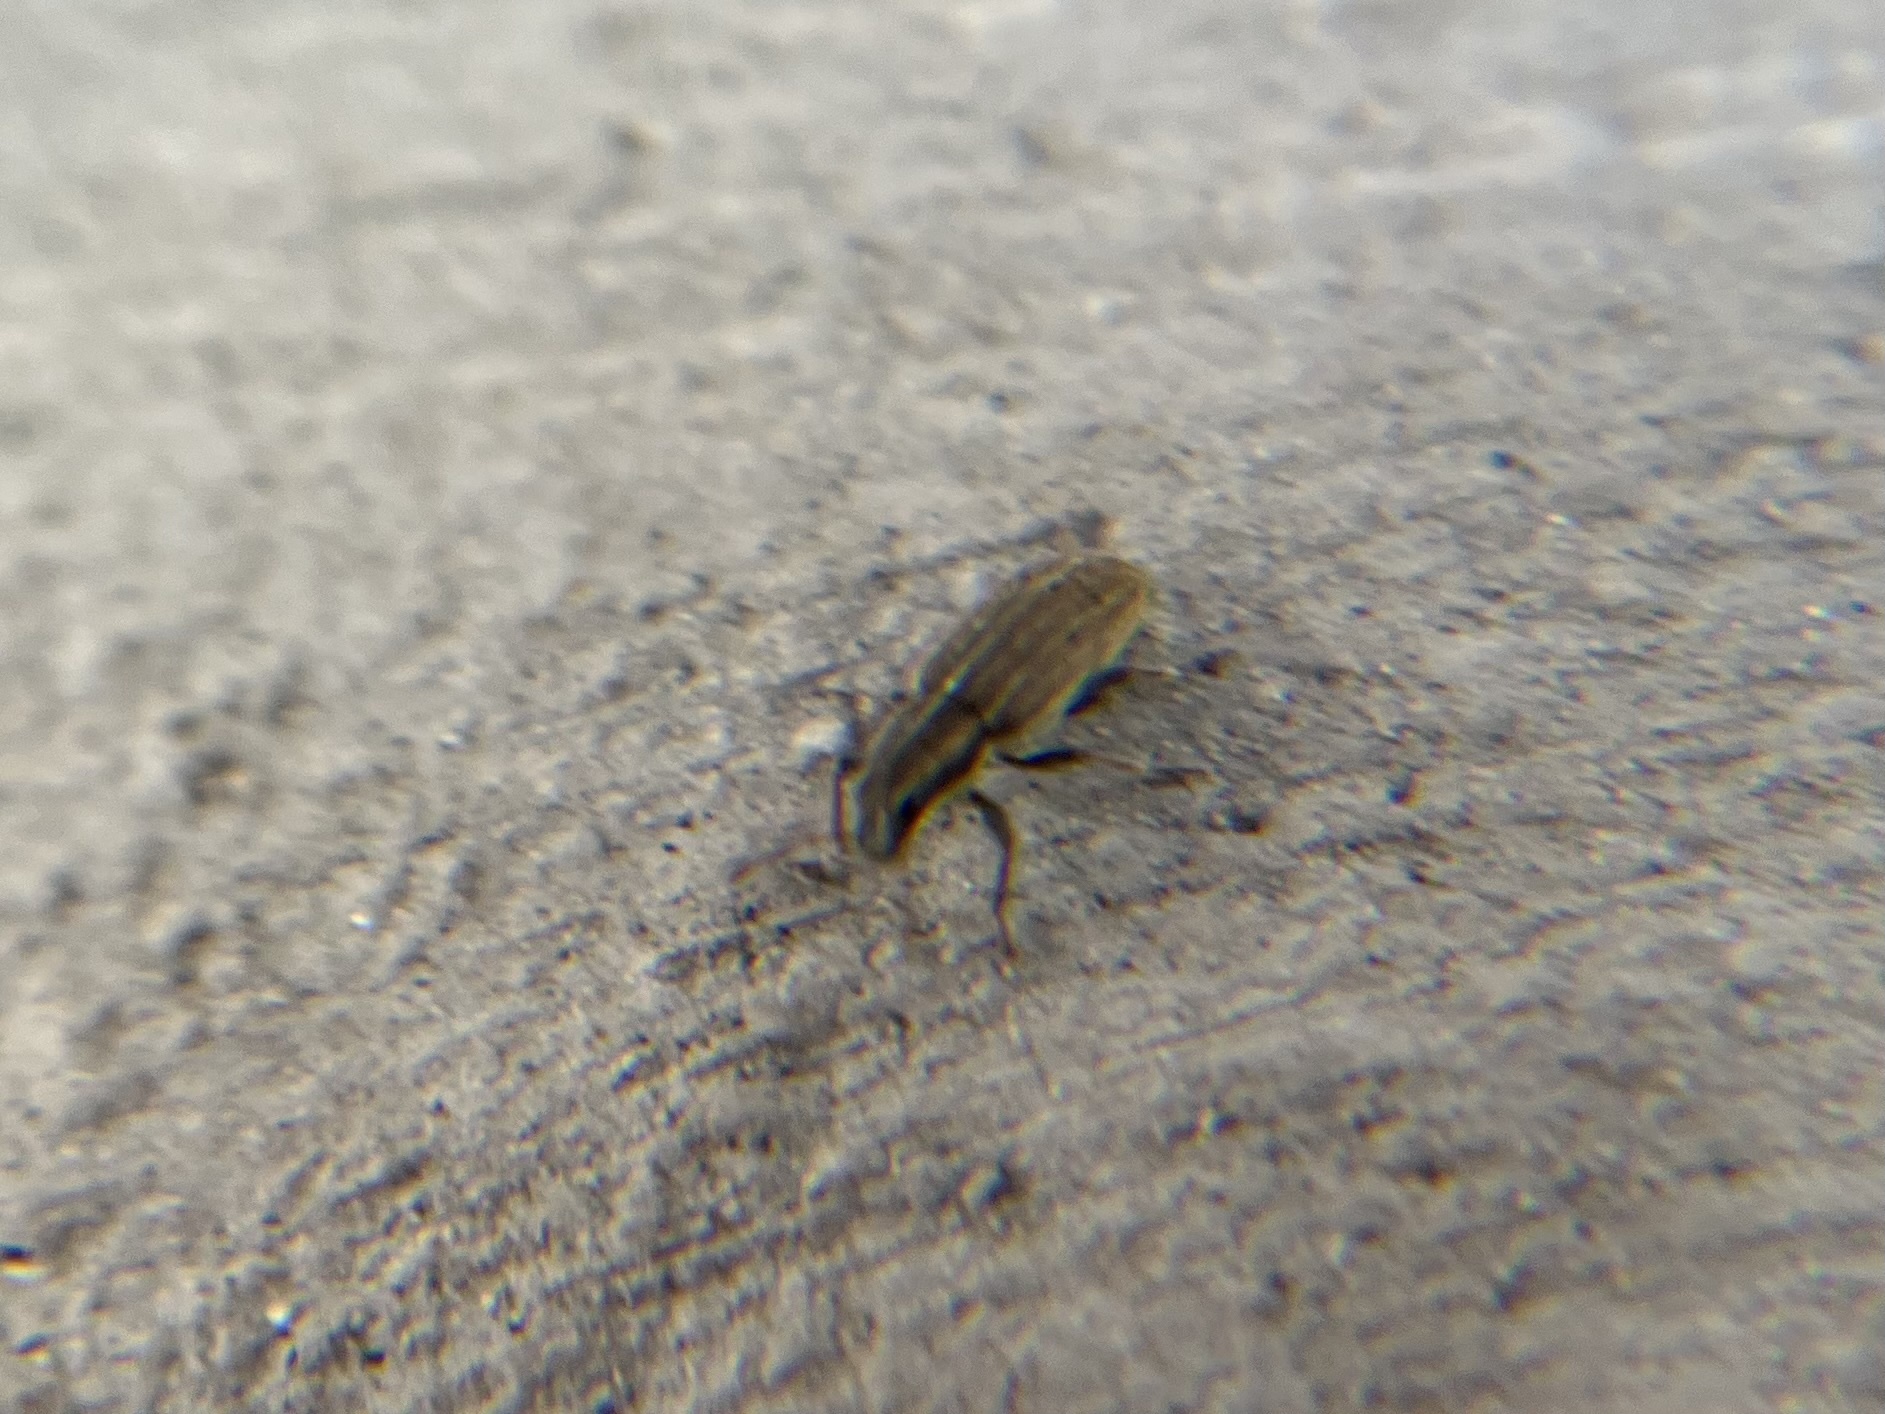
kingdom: Animalia
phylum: Arthropoda
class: Insecta
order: Coleoptera
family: Curculionidae
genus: Sitona
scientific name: Sitona lineatus
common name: Weevil
